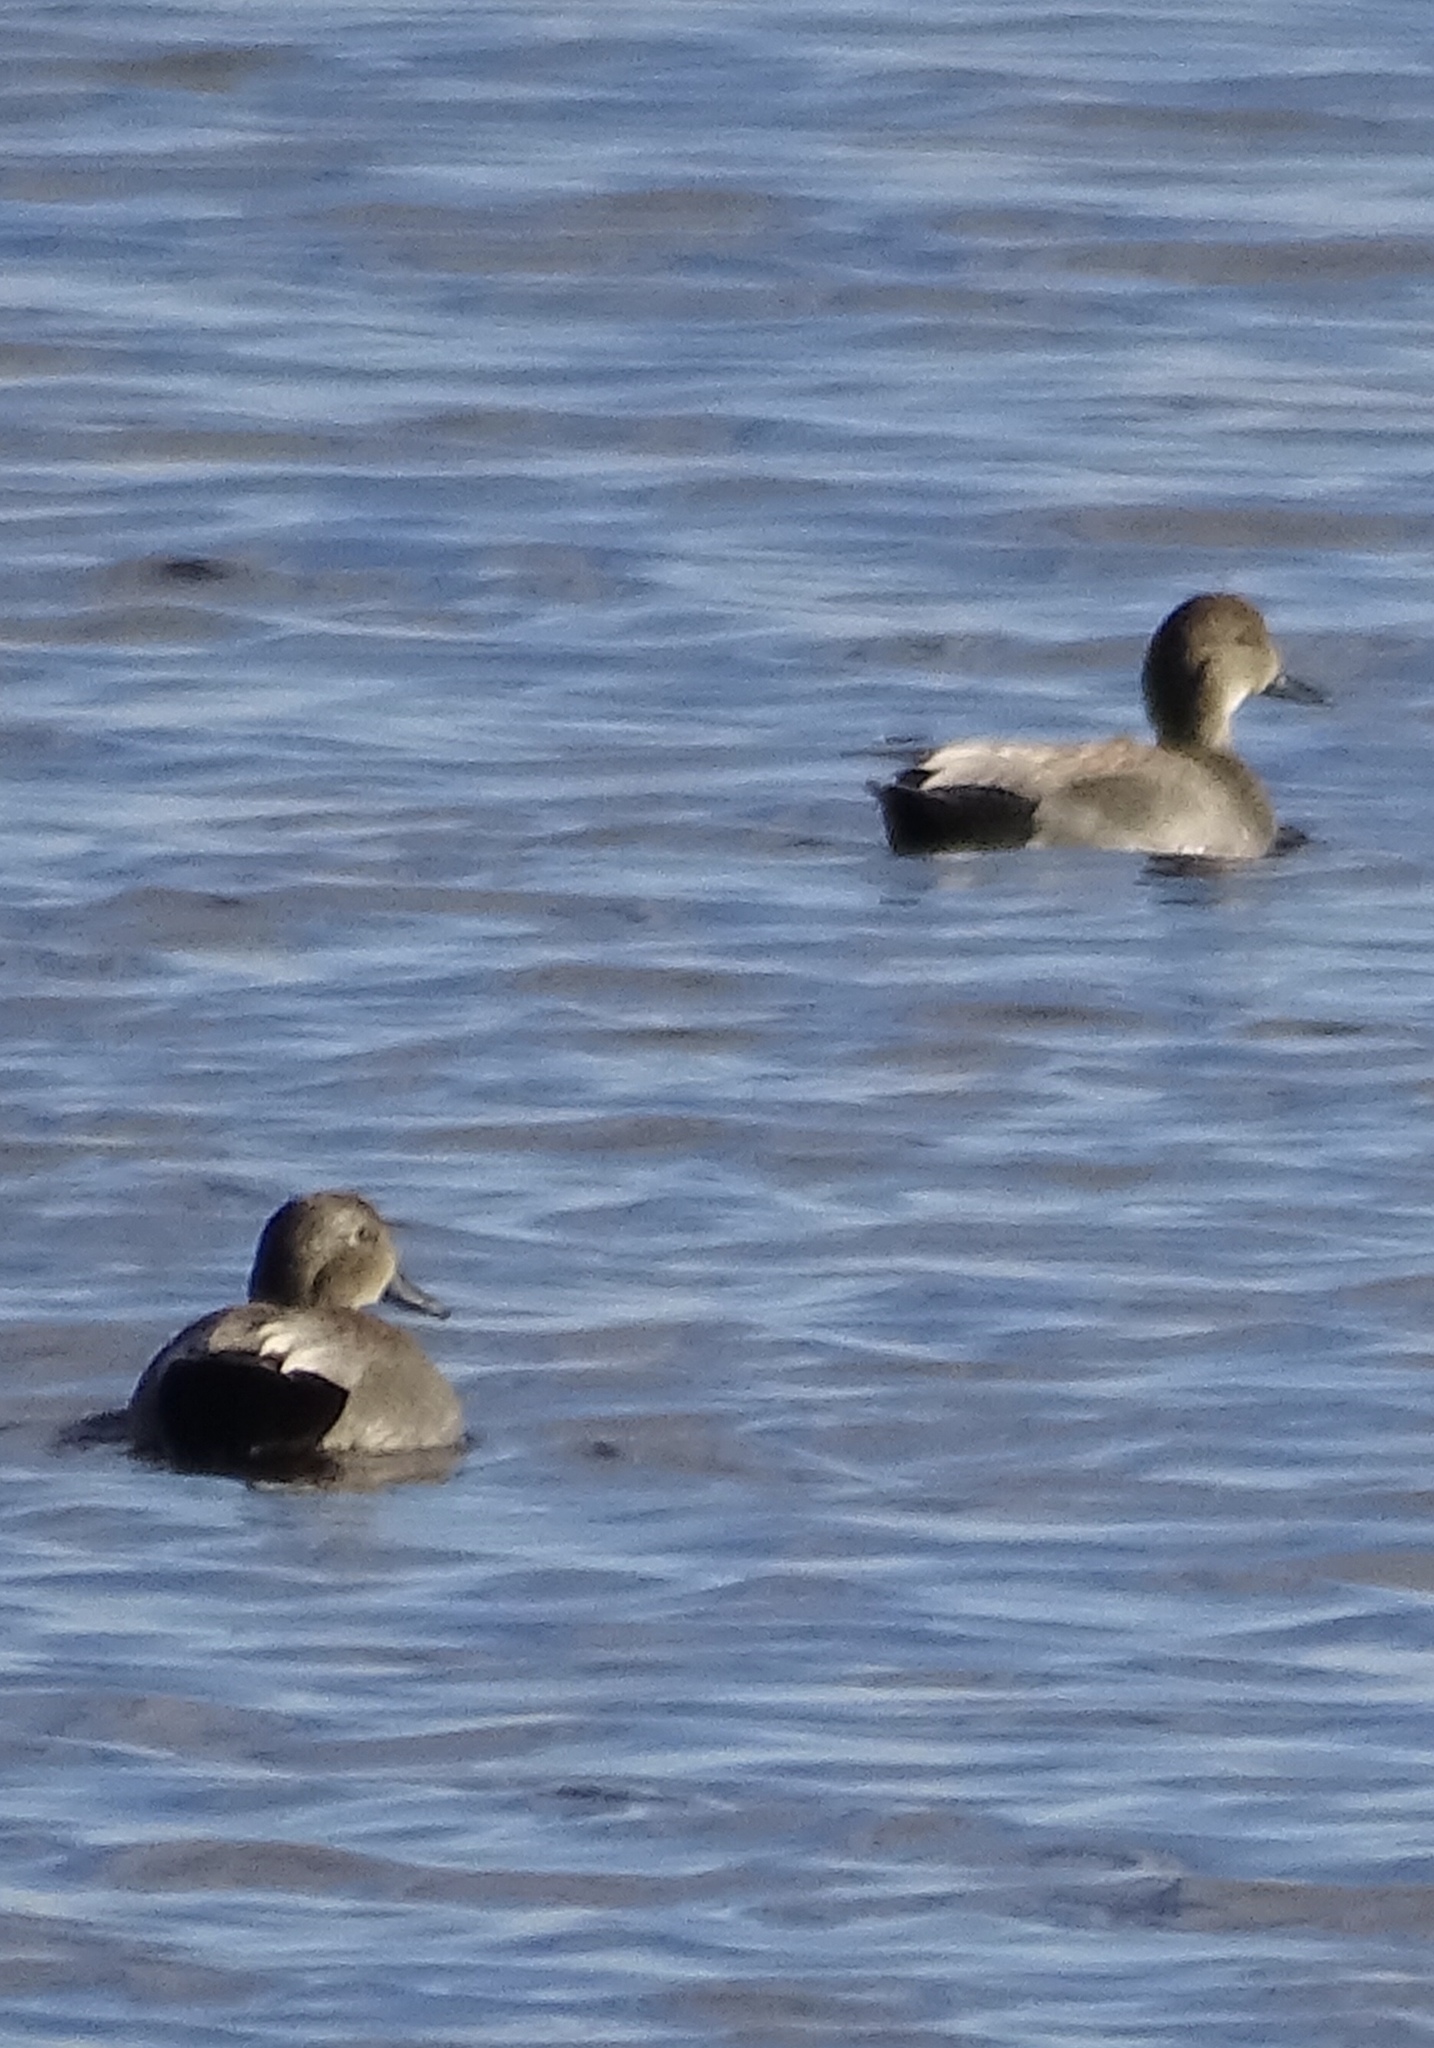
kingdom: Animalia
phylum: Chordata
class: Aves
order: Anseriformes
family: Anatidae
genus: Mareca
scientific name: Mareca strepera
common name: Gadwall
